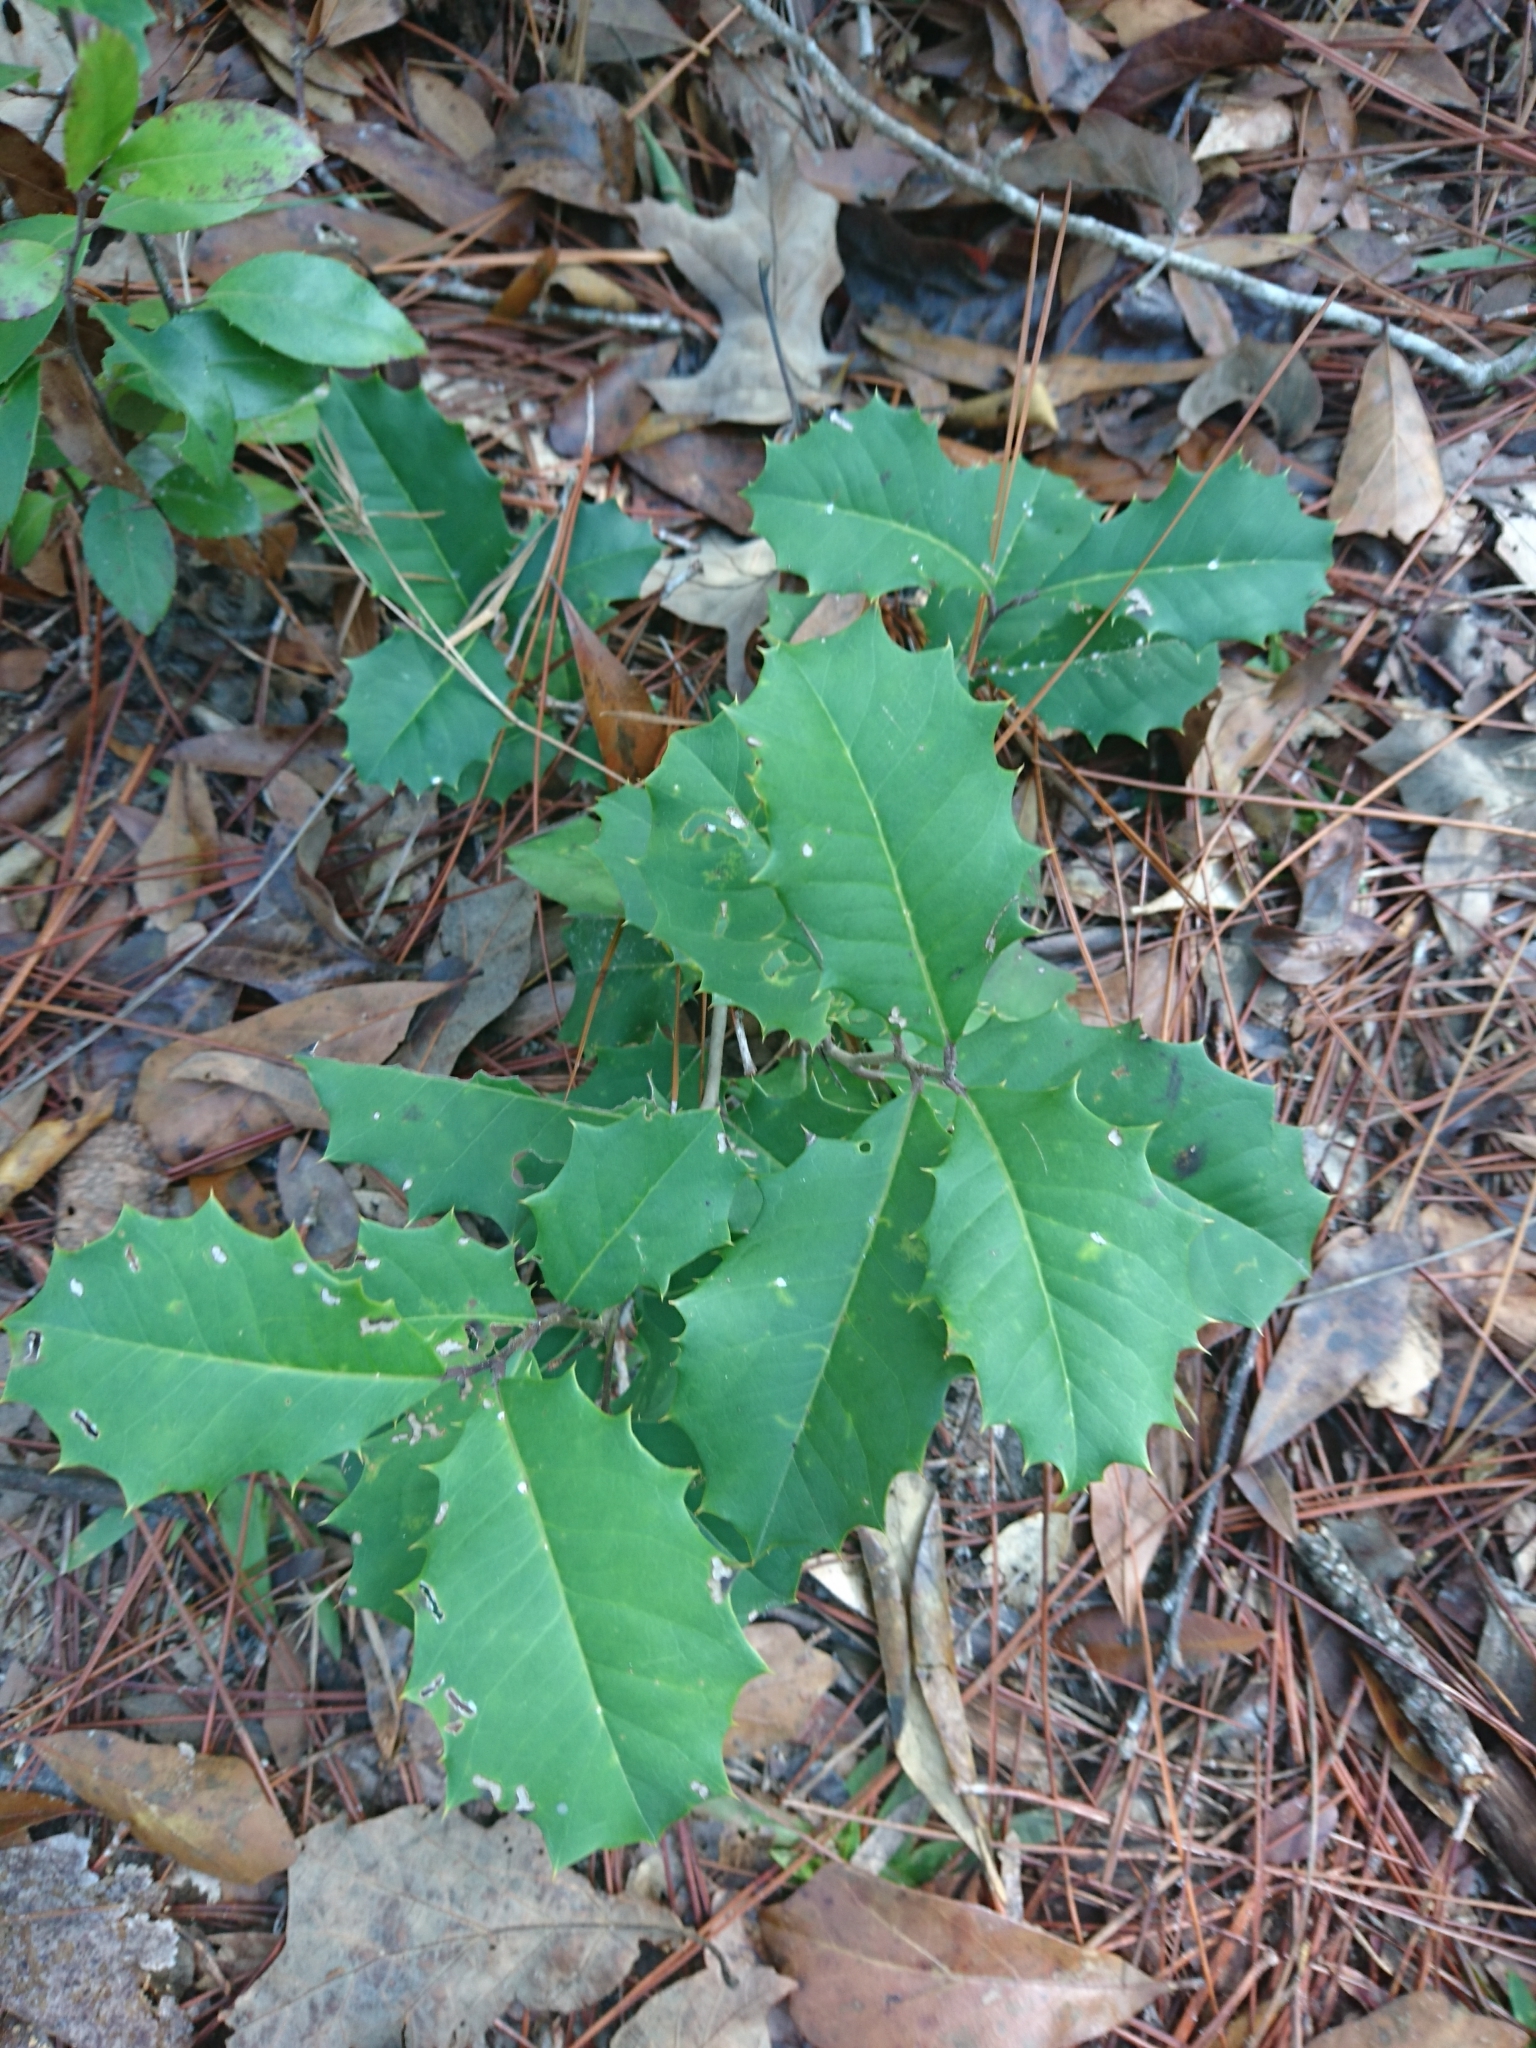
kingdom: Plantae
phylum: Tracheophyta
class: Magnoliopsida
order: Aquifoliales
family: Aquifoliaceae
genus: Ilex
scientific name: Ilex opaca
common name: American holly
